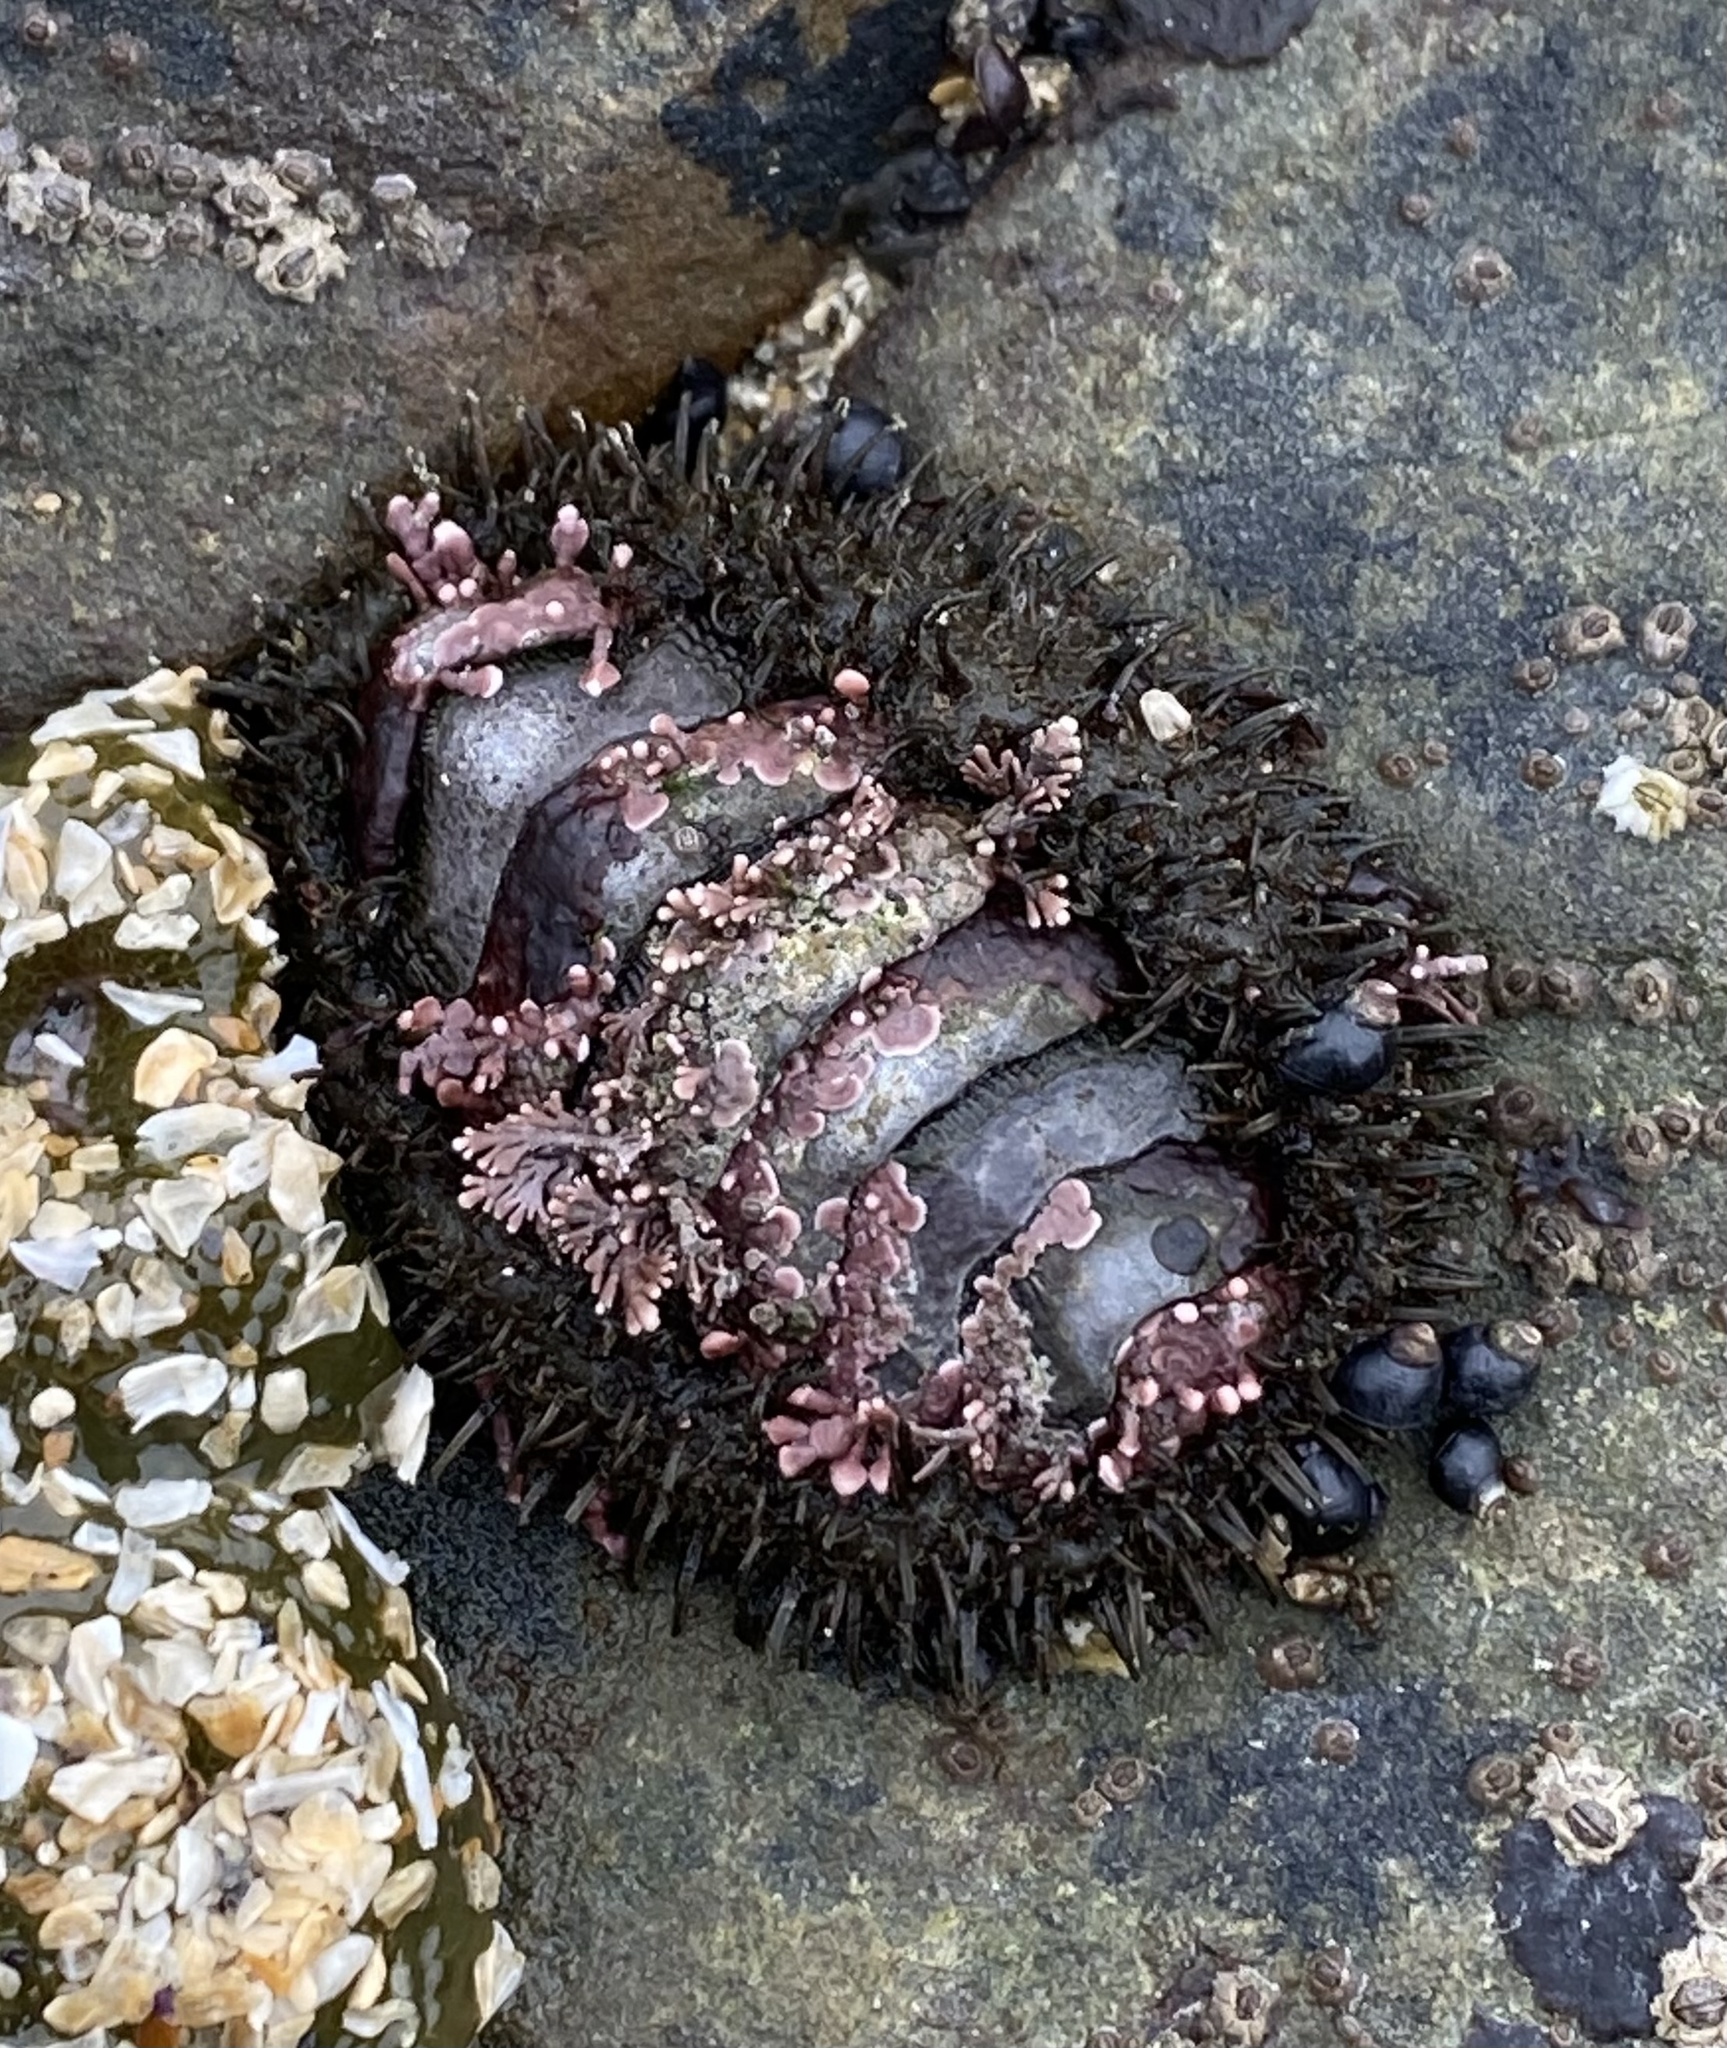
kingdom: Animalia
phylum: Mollusca
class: Polyplacophora
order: Chitonida
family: Mopaliidae
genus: Mopalia
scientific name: Mopalia muscosa
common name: Mossy chiton
